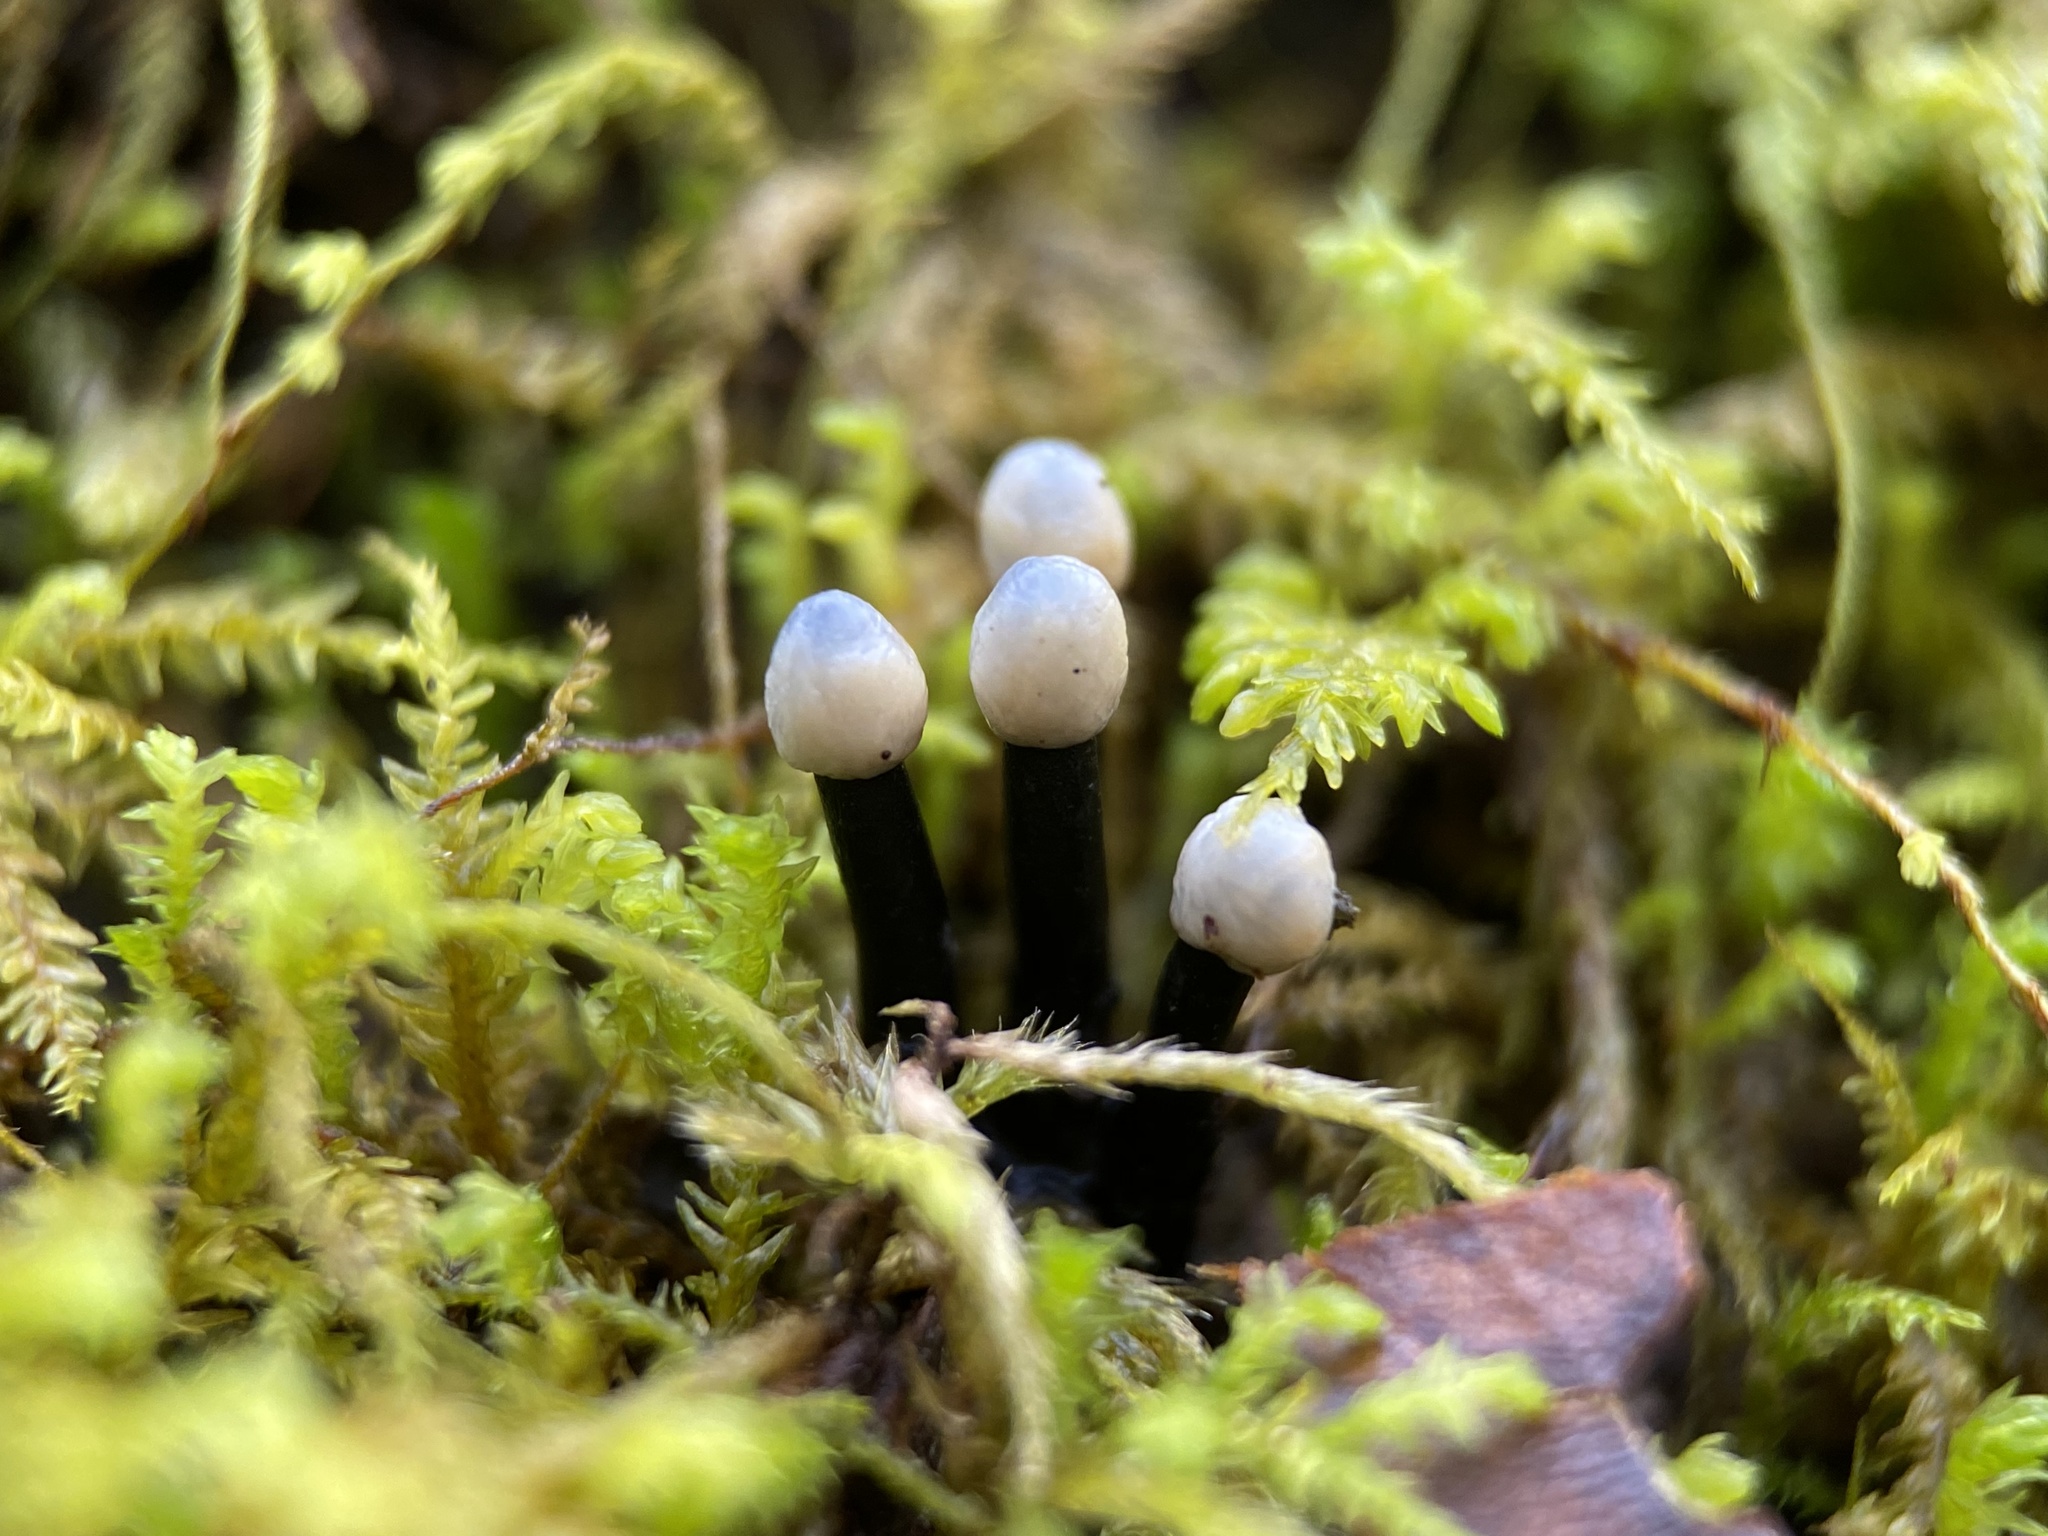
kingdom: Fungi
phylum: Ascomycota
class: Leotiomycetes
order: Helotiales
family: Bulgariaceae
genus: Holwaya
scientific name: Holwaya mucida
